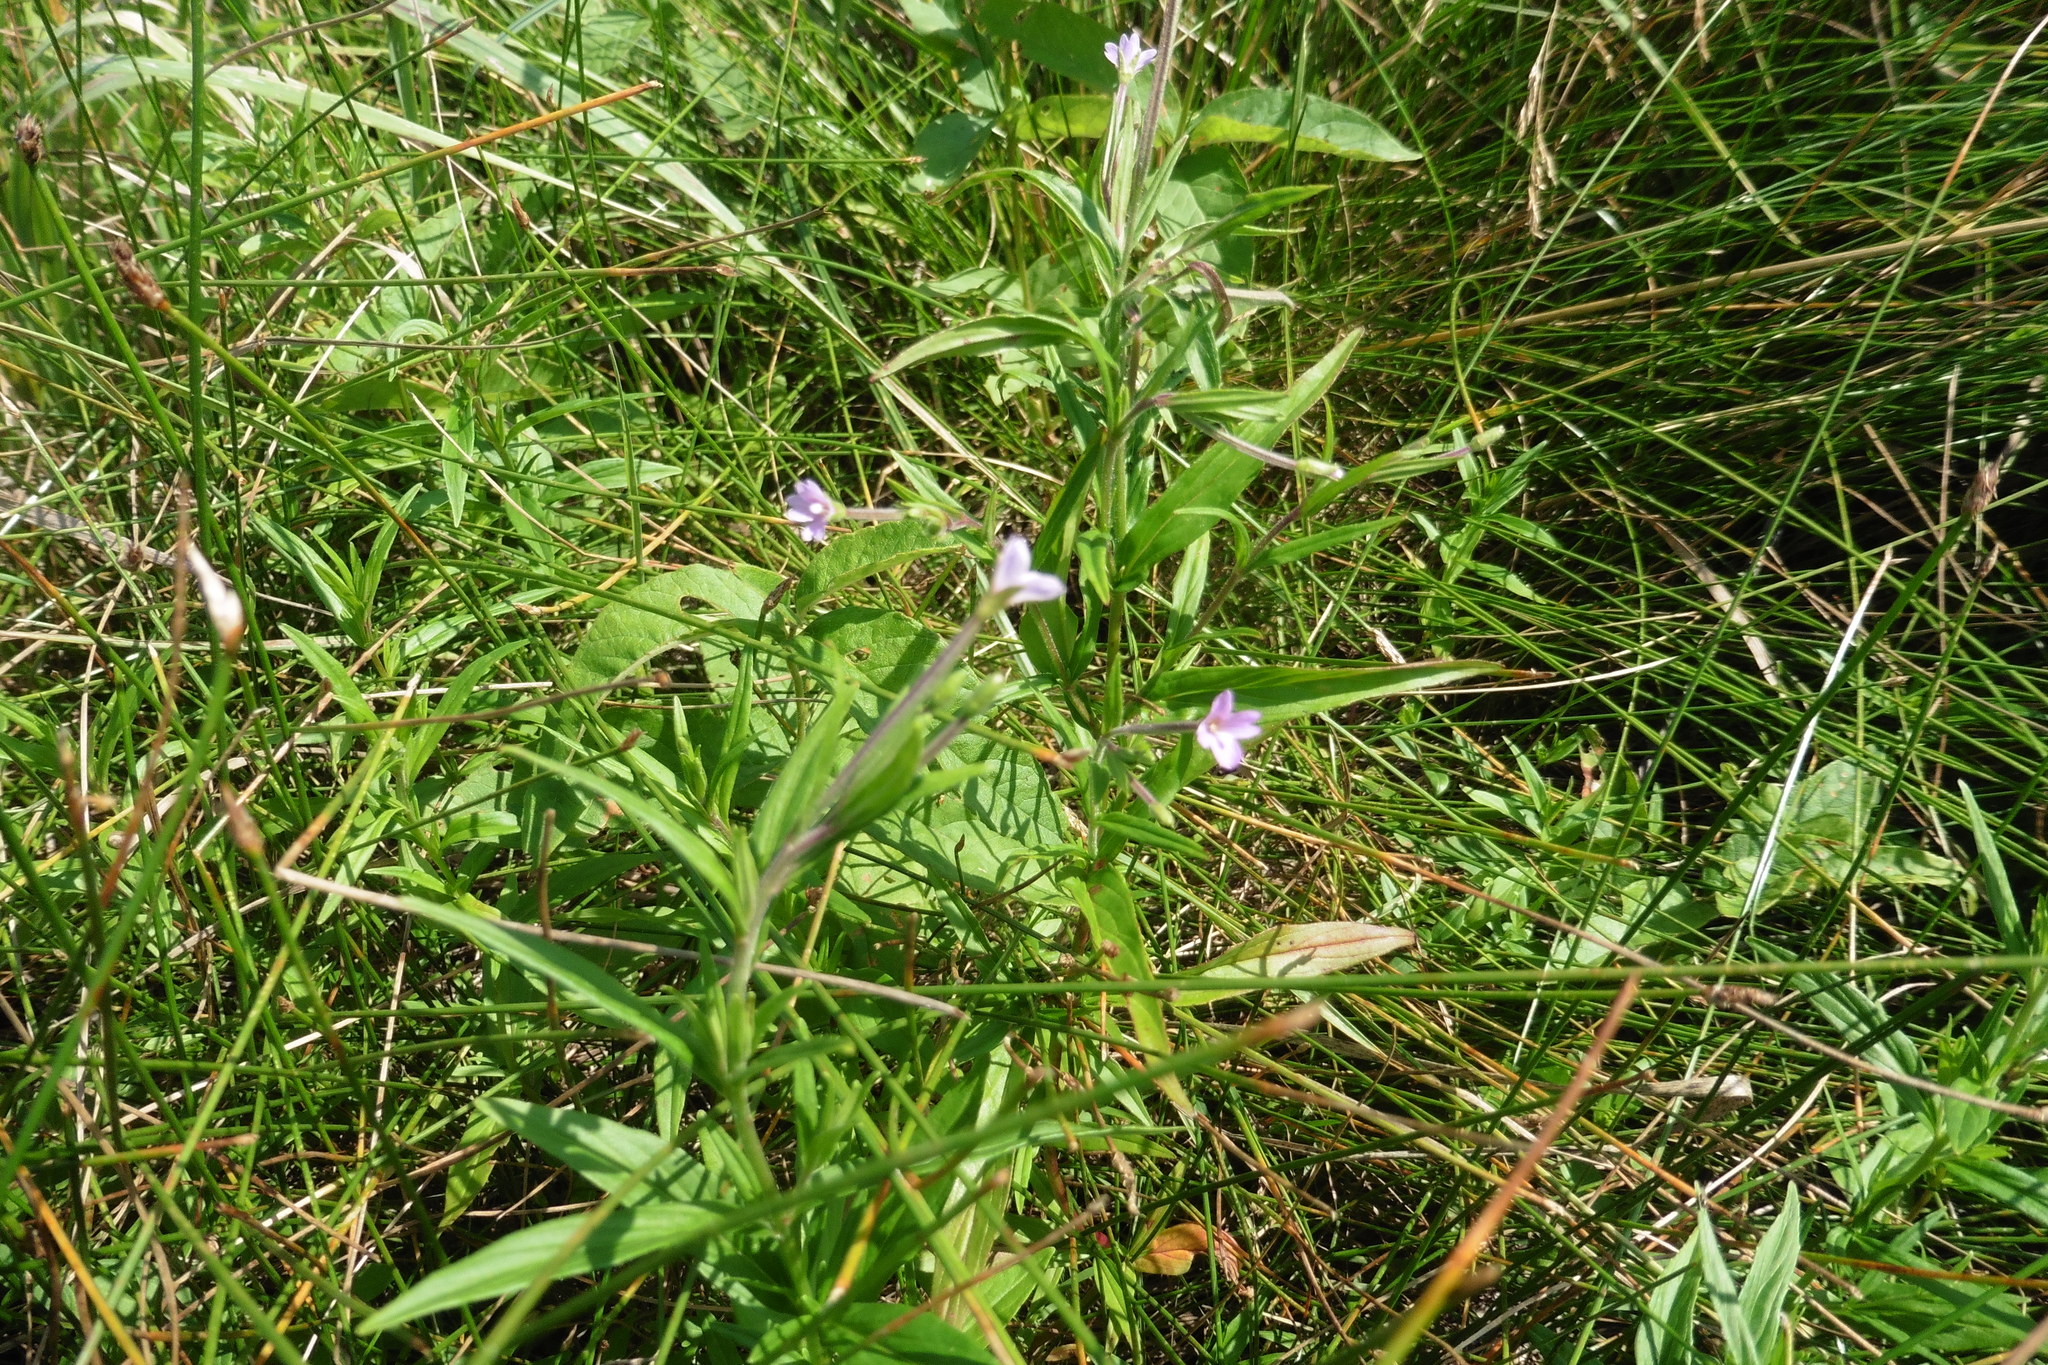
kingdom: Plantae
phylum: Tracheophyta
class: Magnoliopsida
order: Myrtales
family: Onagraceae
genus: Epilobium
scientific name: Epilobium palustre
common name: Marsh willowherb
